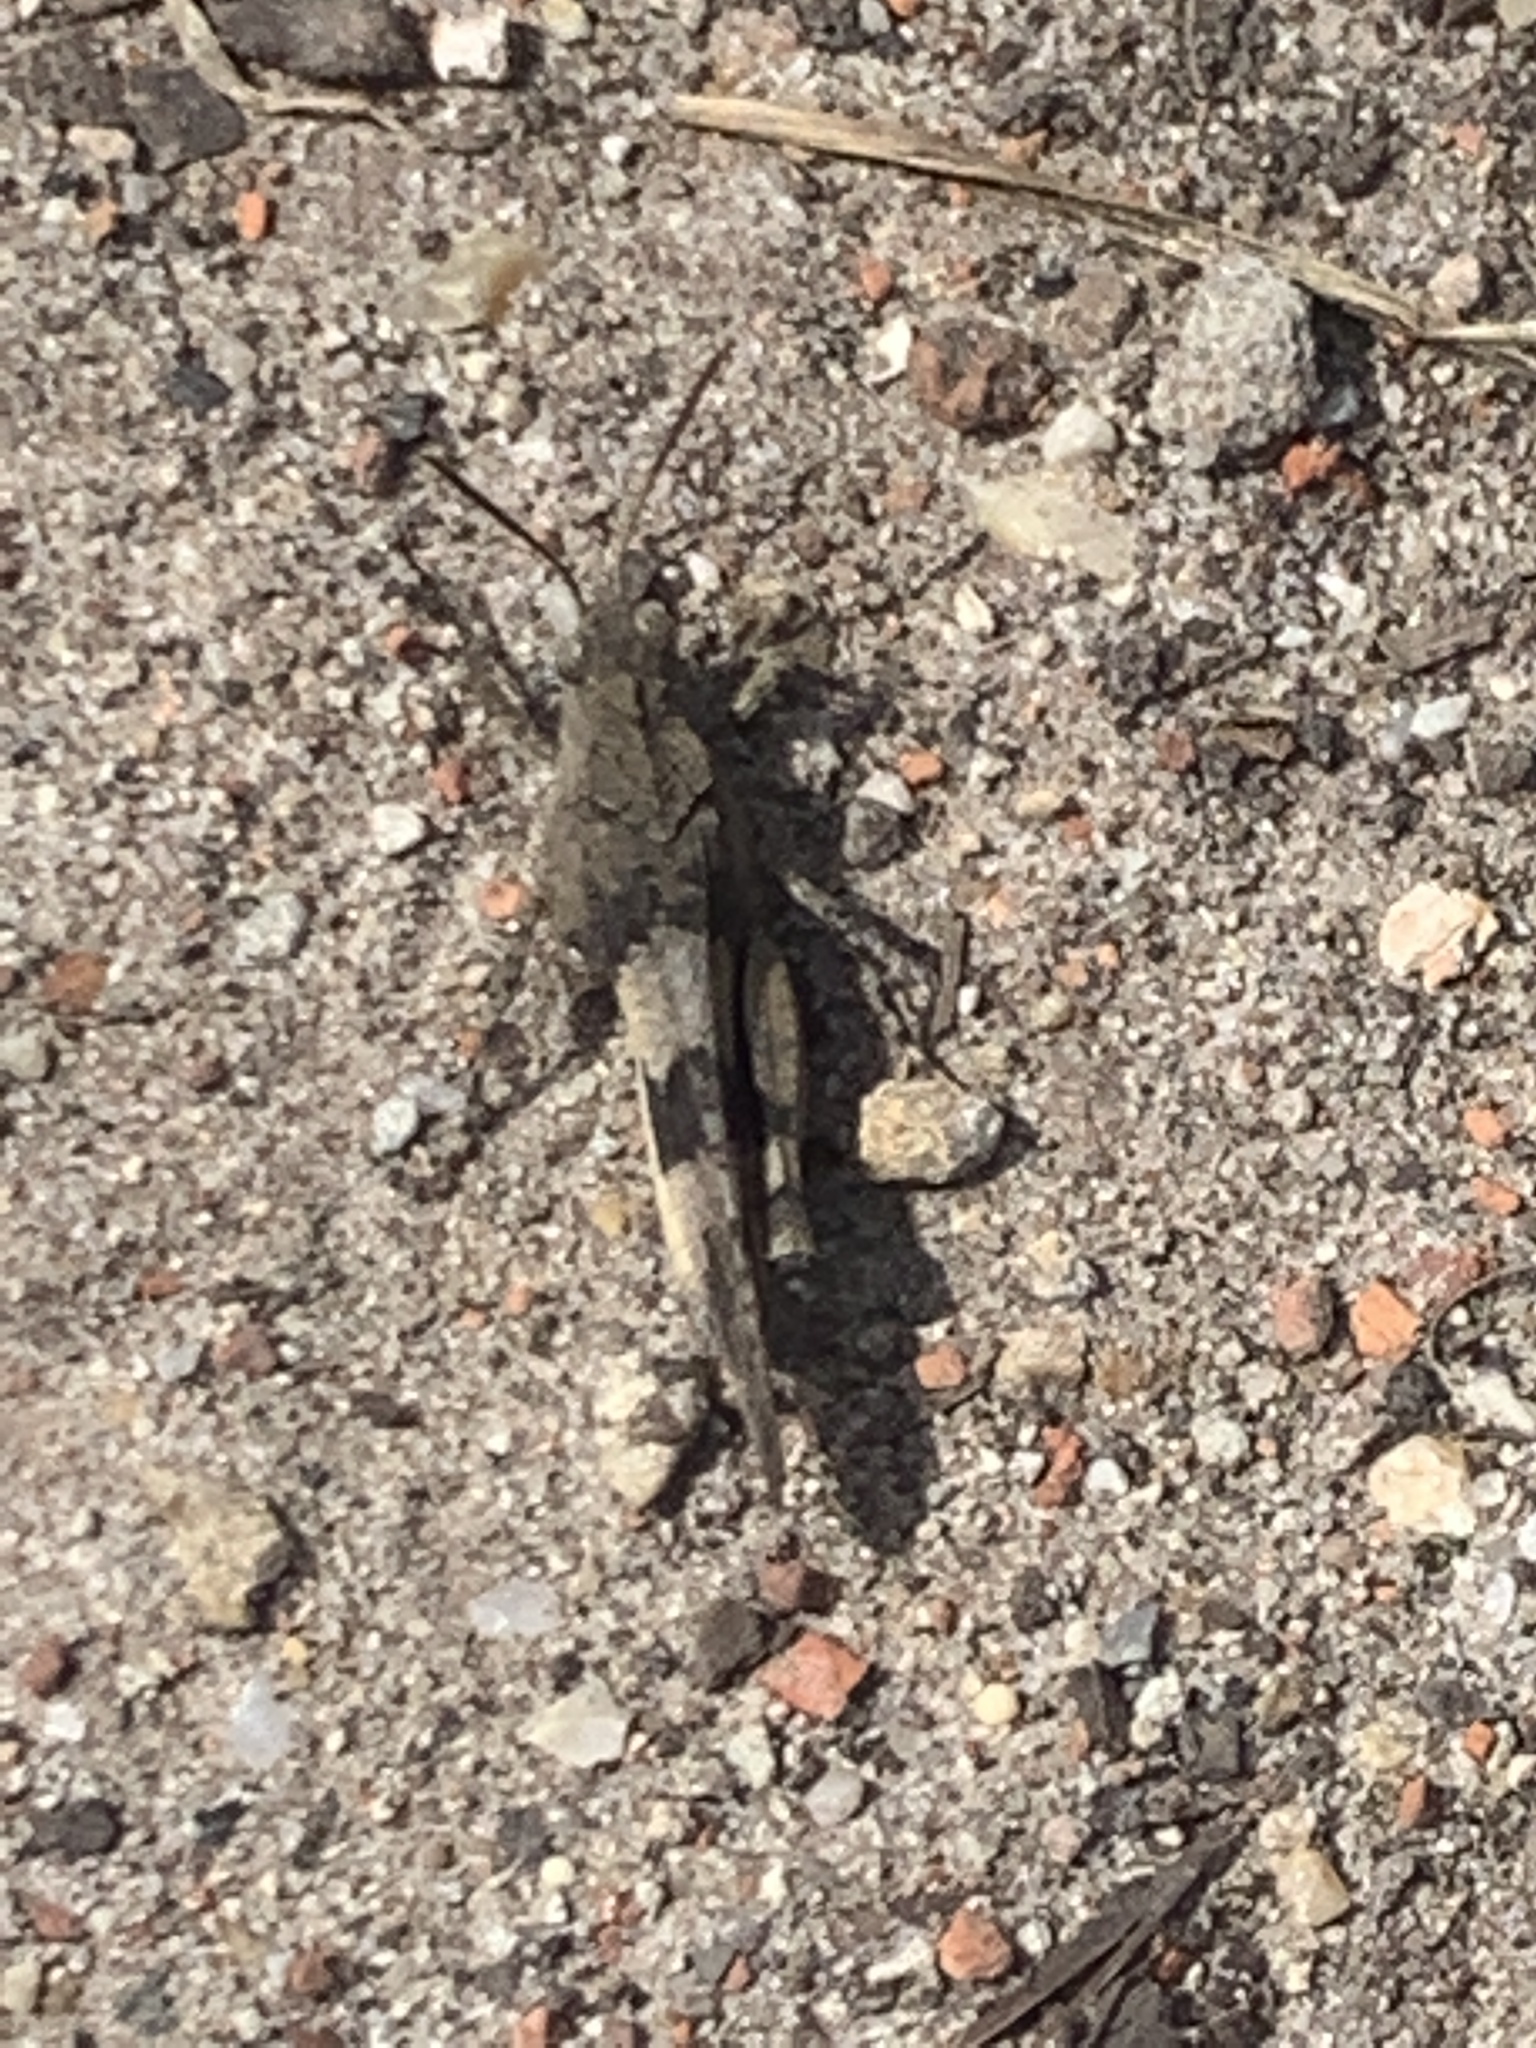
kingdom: Animalia
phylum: Arthropoda
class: Insecta
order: Orthoptera
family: Acrididae
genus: Oedipoda
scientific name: Oedipoda caerulescens
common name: Blue-winged grasshopper
